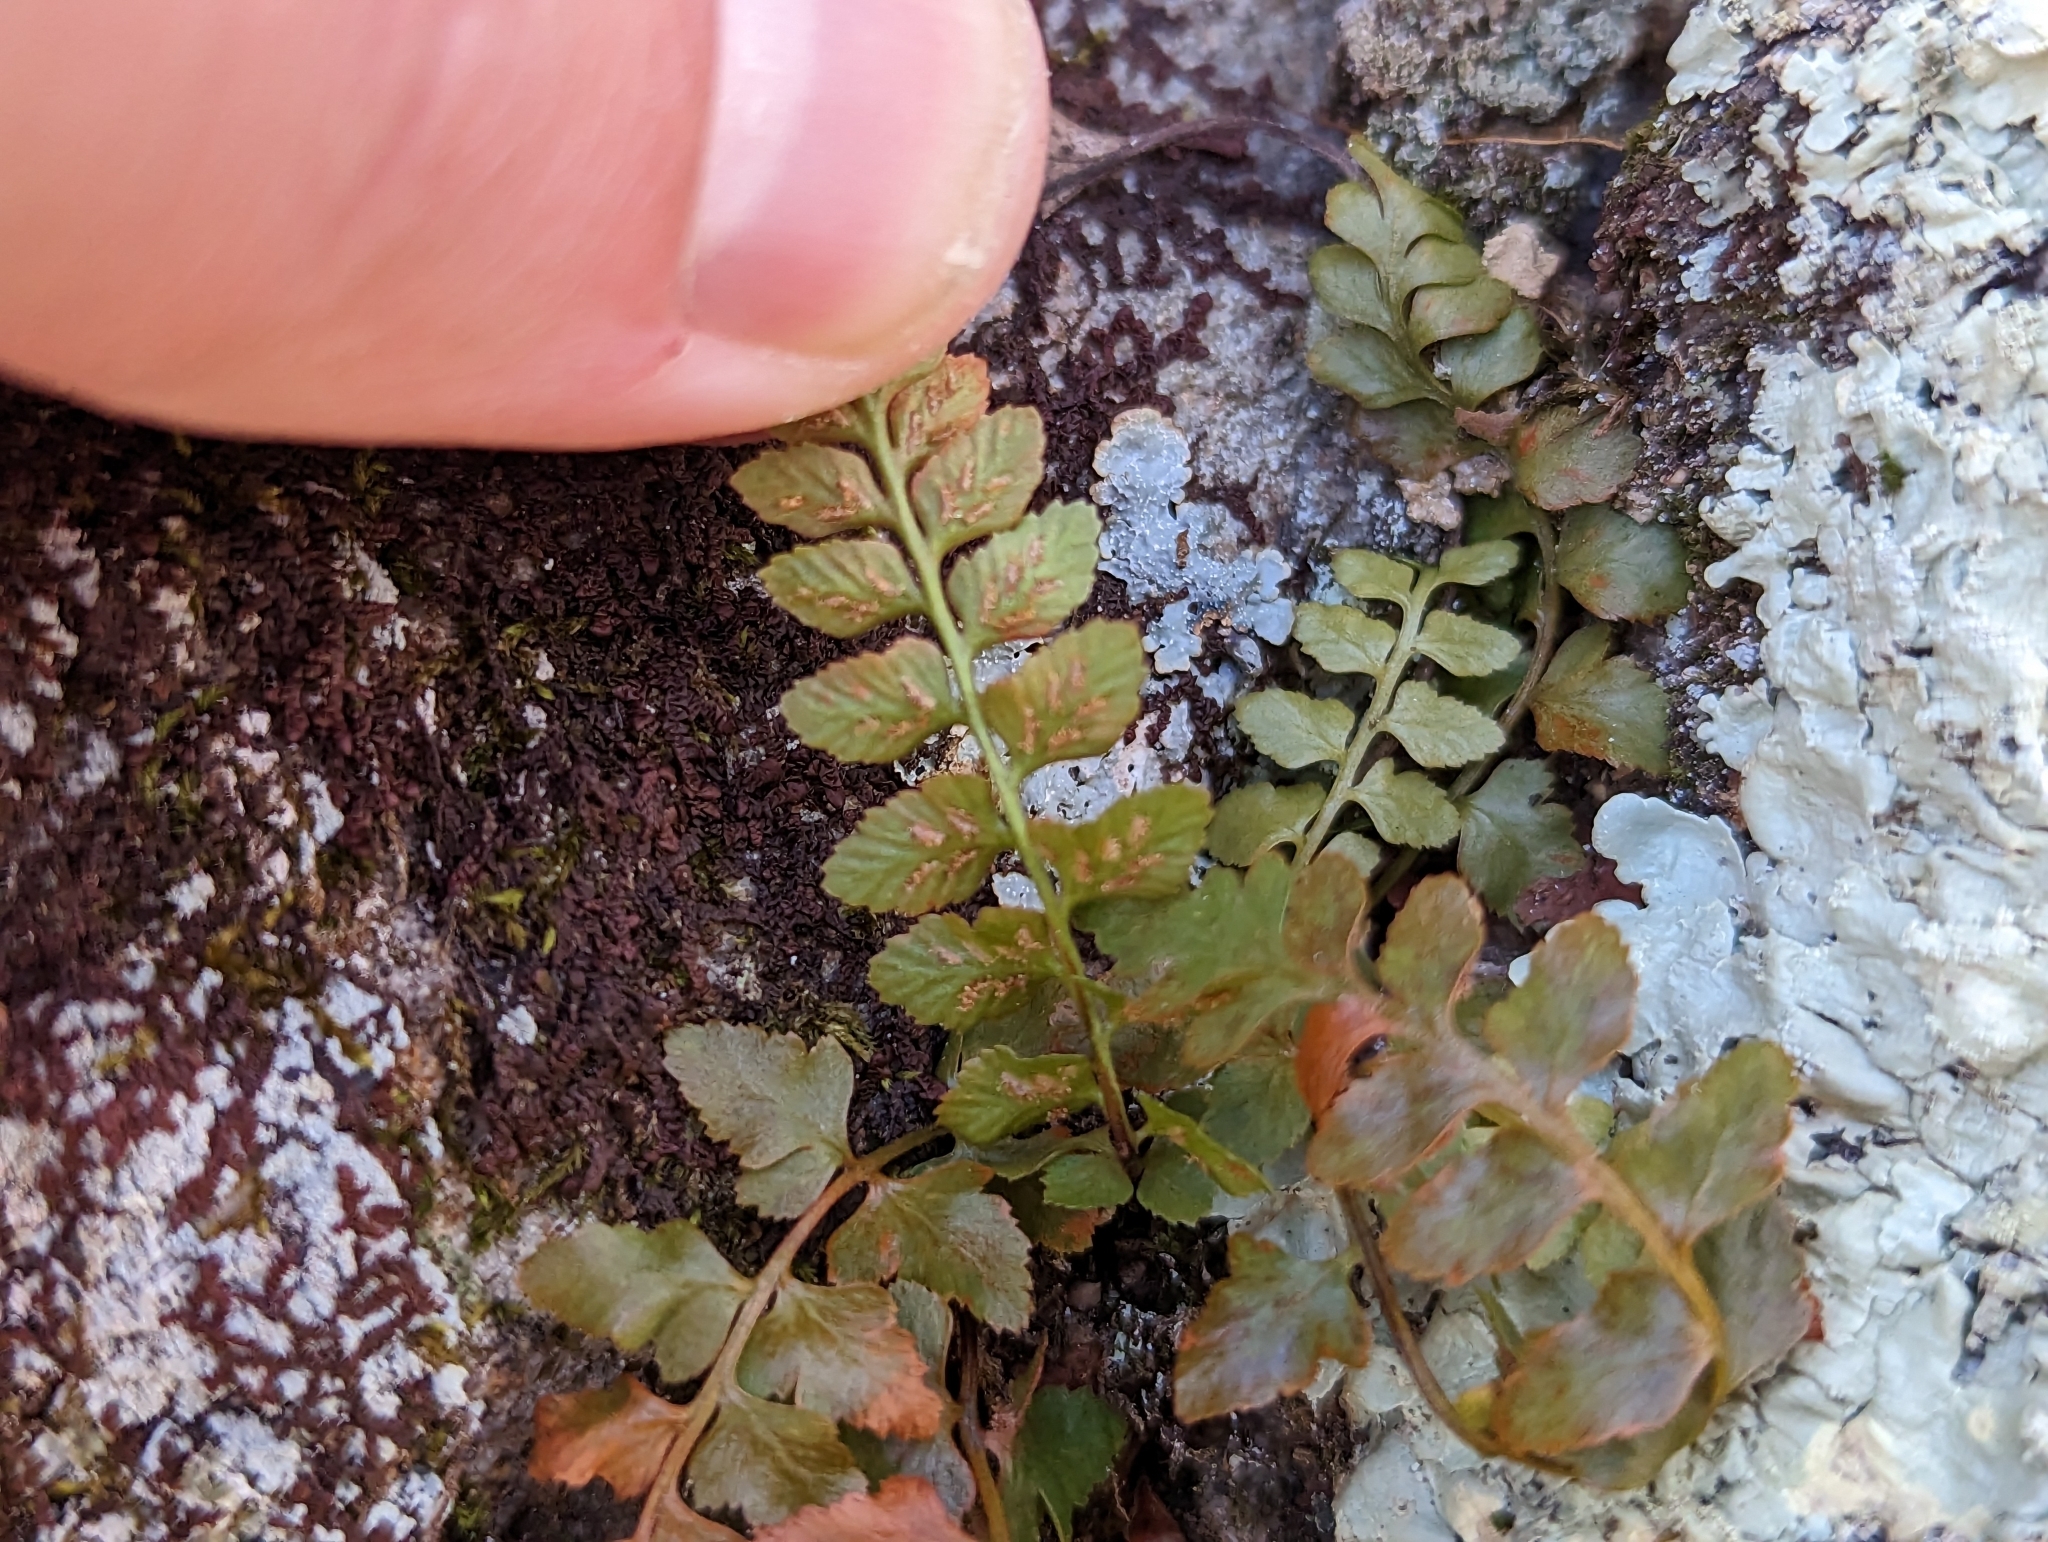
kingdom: Plantae
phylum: Tracheophyta
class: Polypodiopsida
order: Polypodiales
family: Aspleniaceae
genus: Asplenium
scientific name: Asplenium bradleyi
